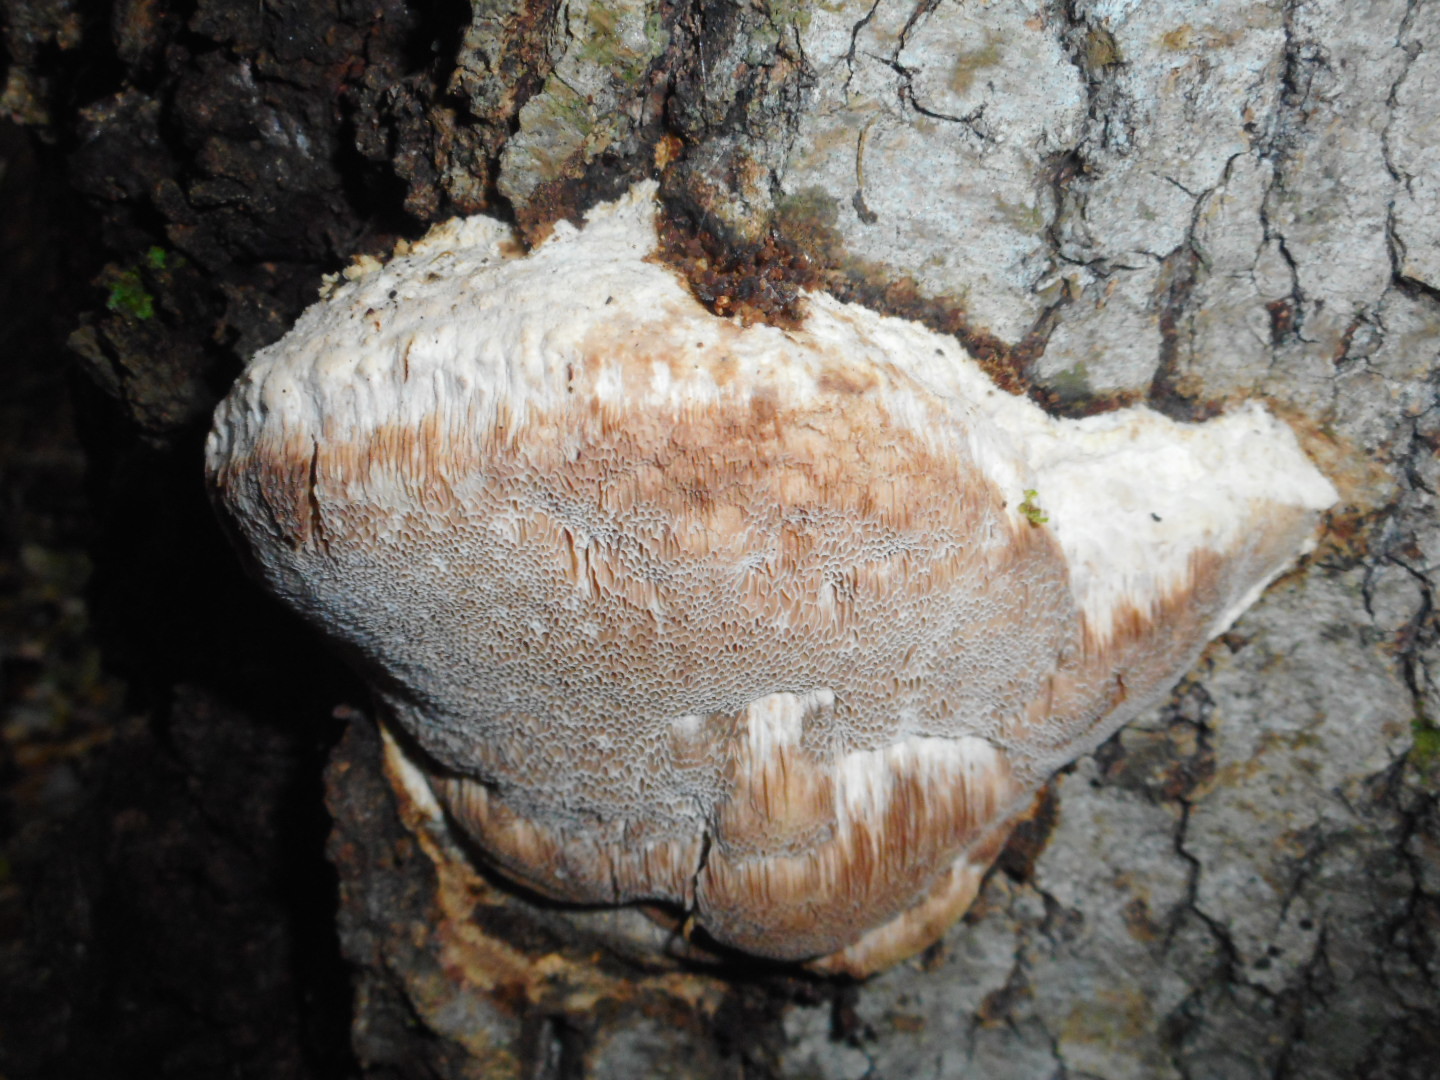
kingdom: Fungi
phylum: Basidiomycota
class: Agaricomycetes
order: Polyporales
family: Meruliaceae
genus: Pappia
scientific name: Pappia fissilis
